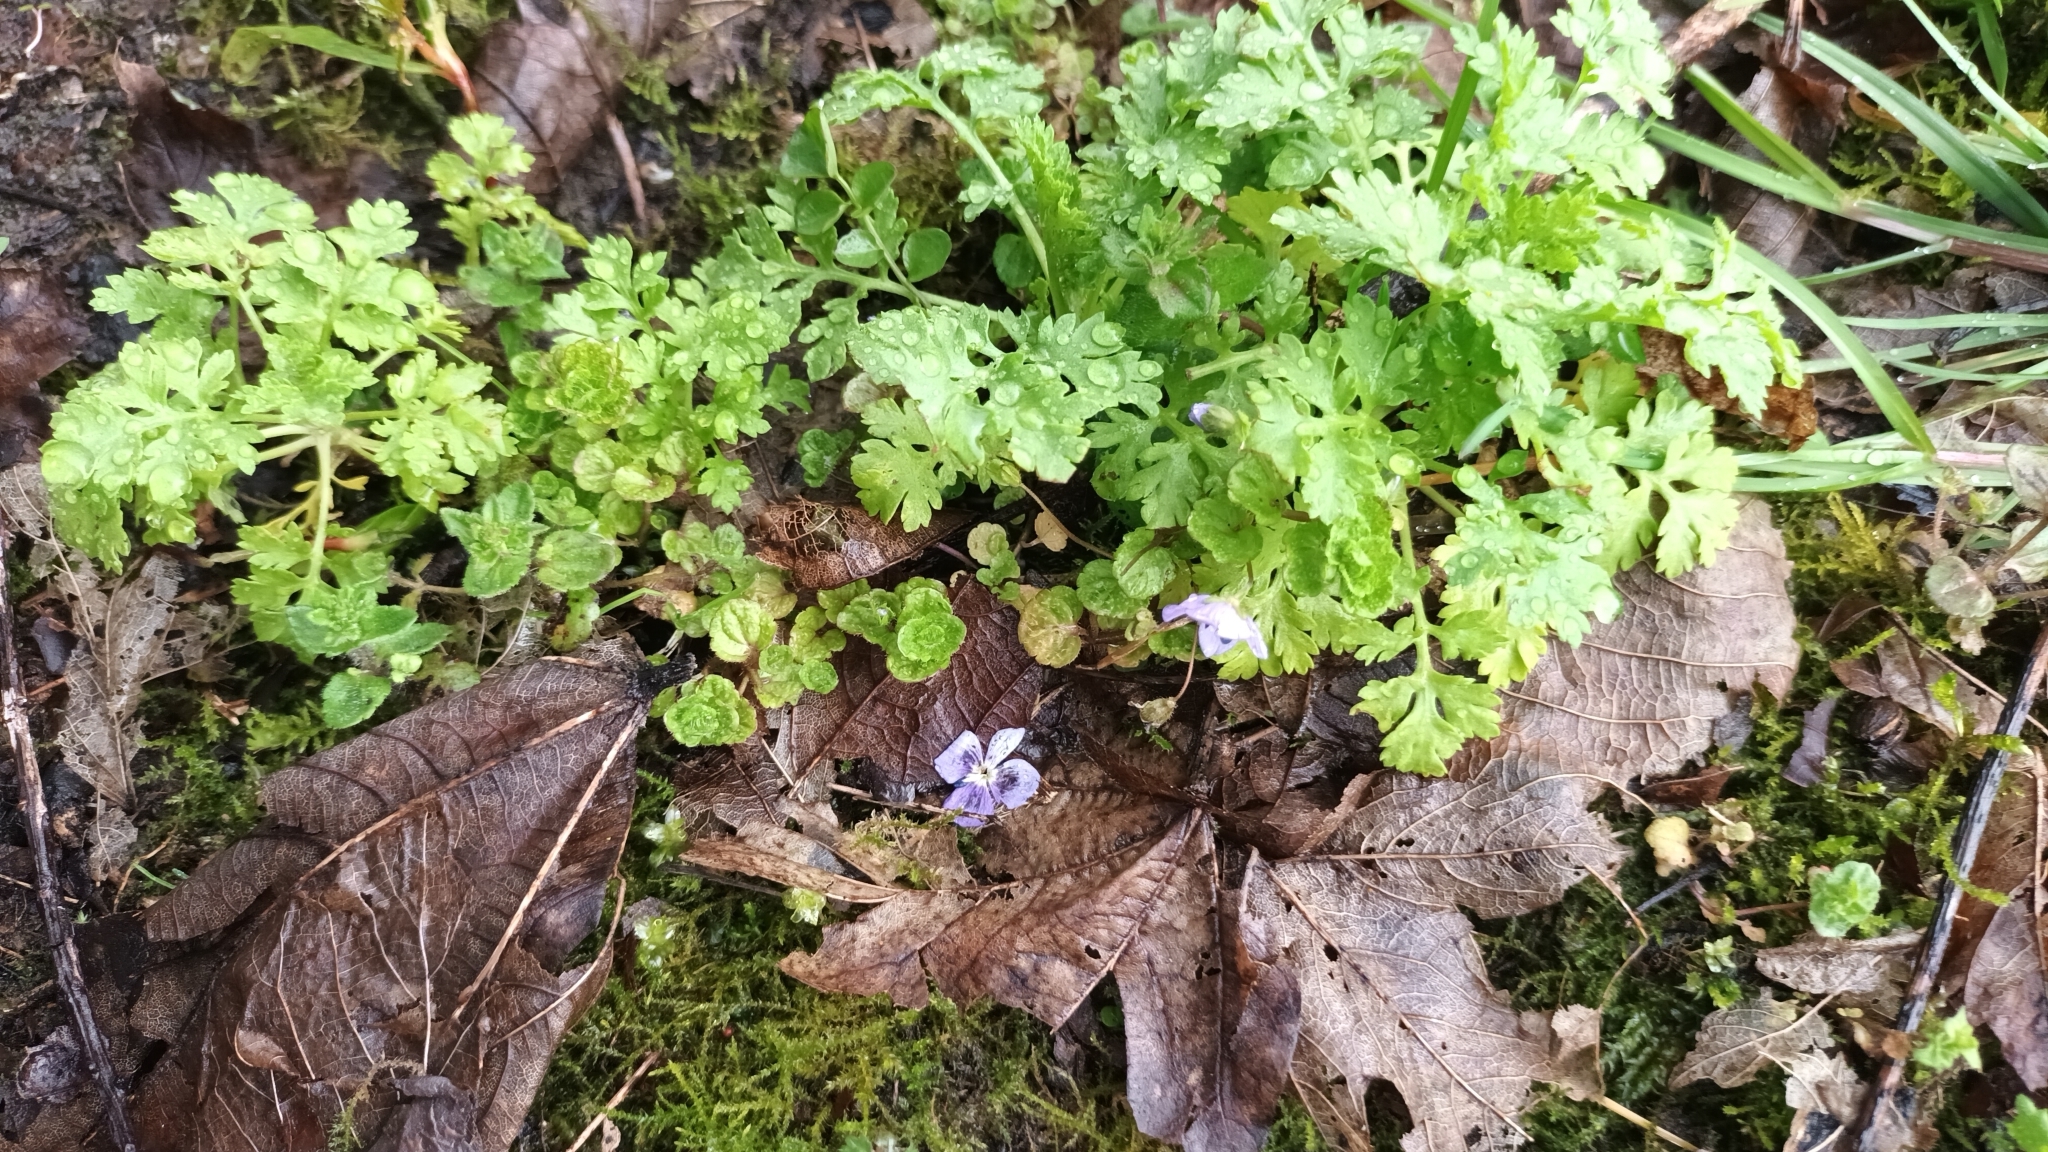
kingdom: Plantae
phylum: Tracheophyta
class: Magnoliopsida
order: Lamiales
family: Plantaginaceae
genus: Veronica
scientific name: Veronica filiformis
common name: Slender speedwell
